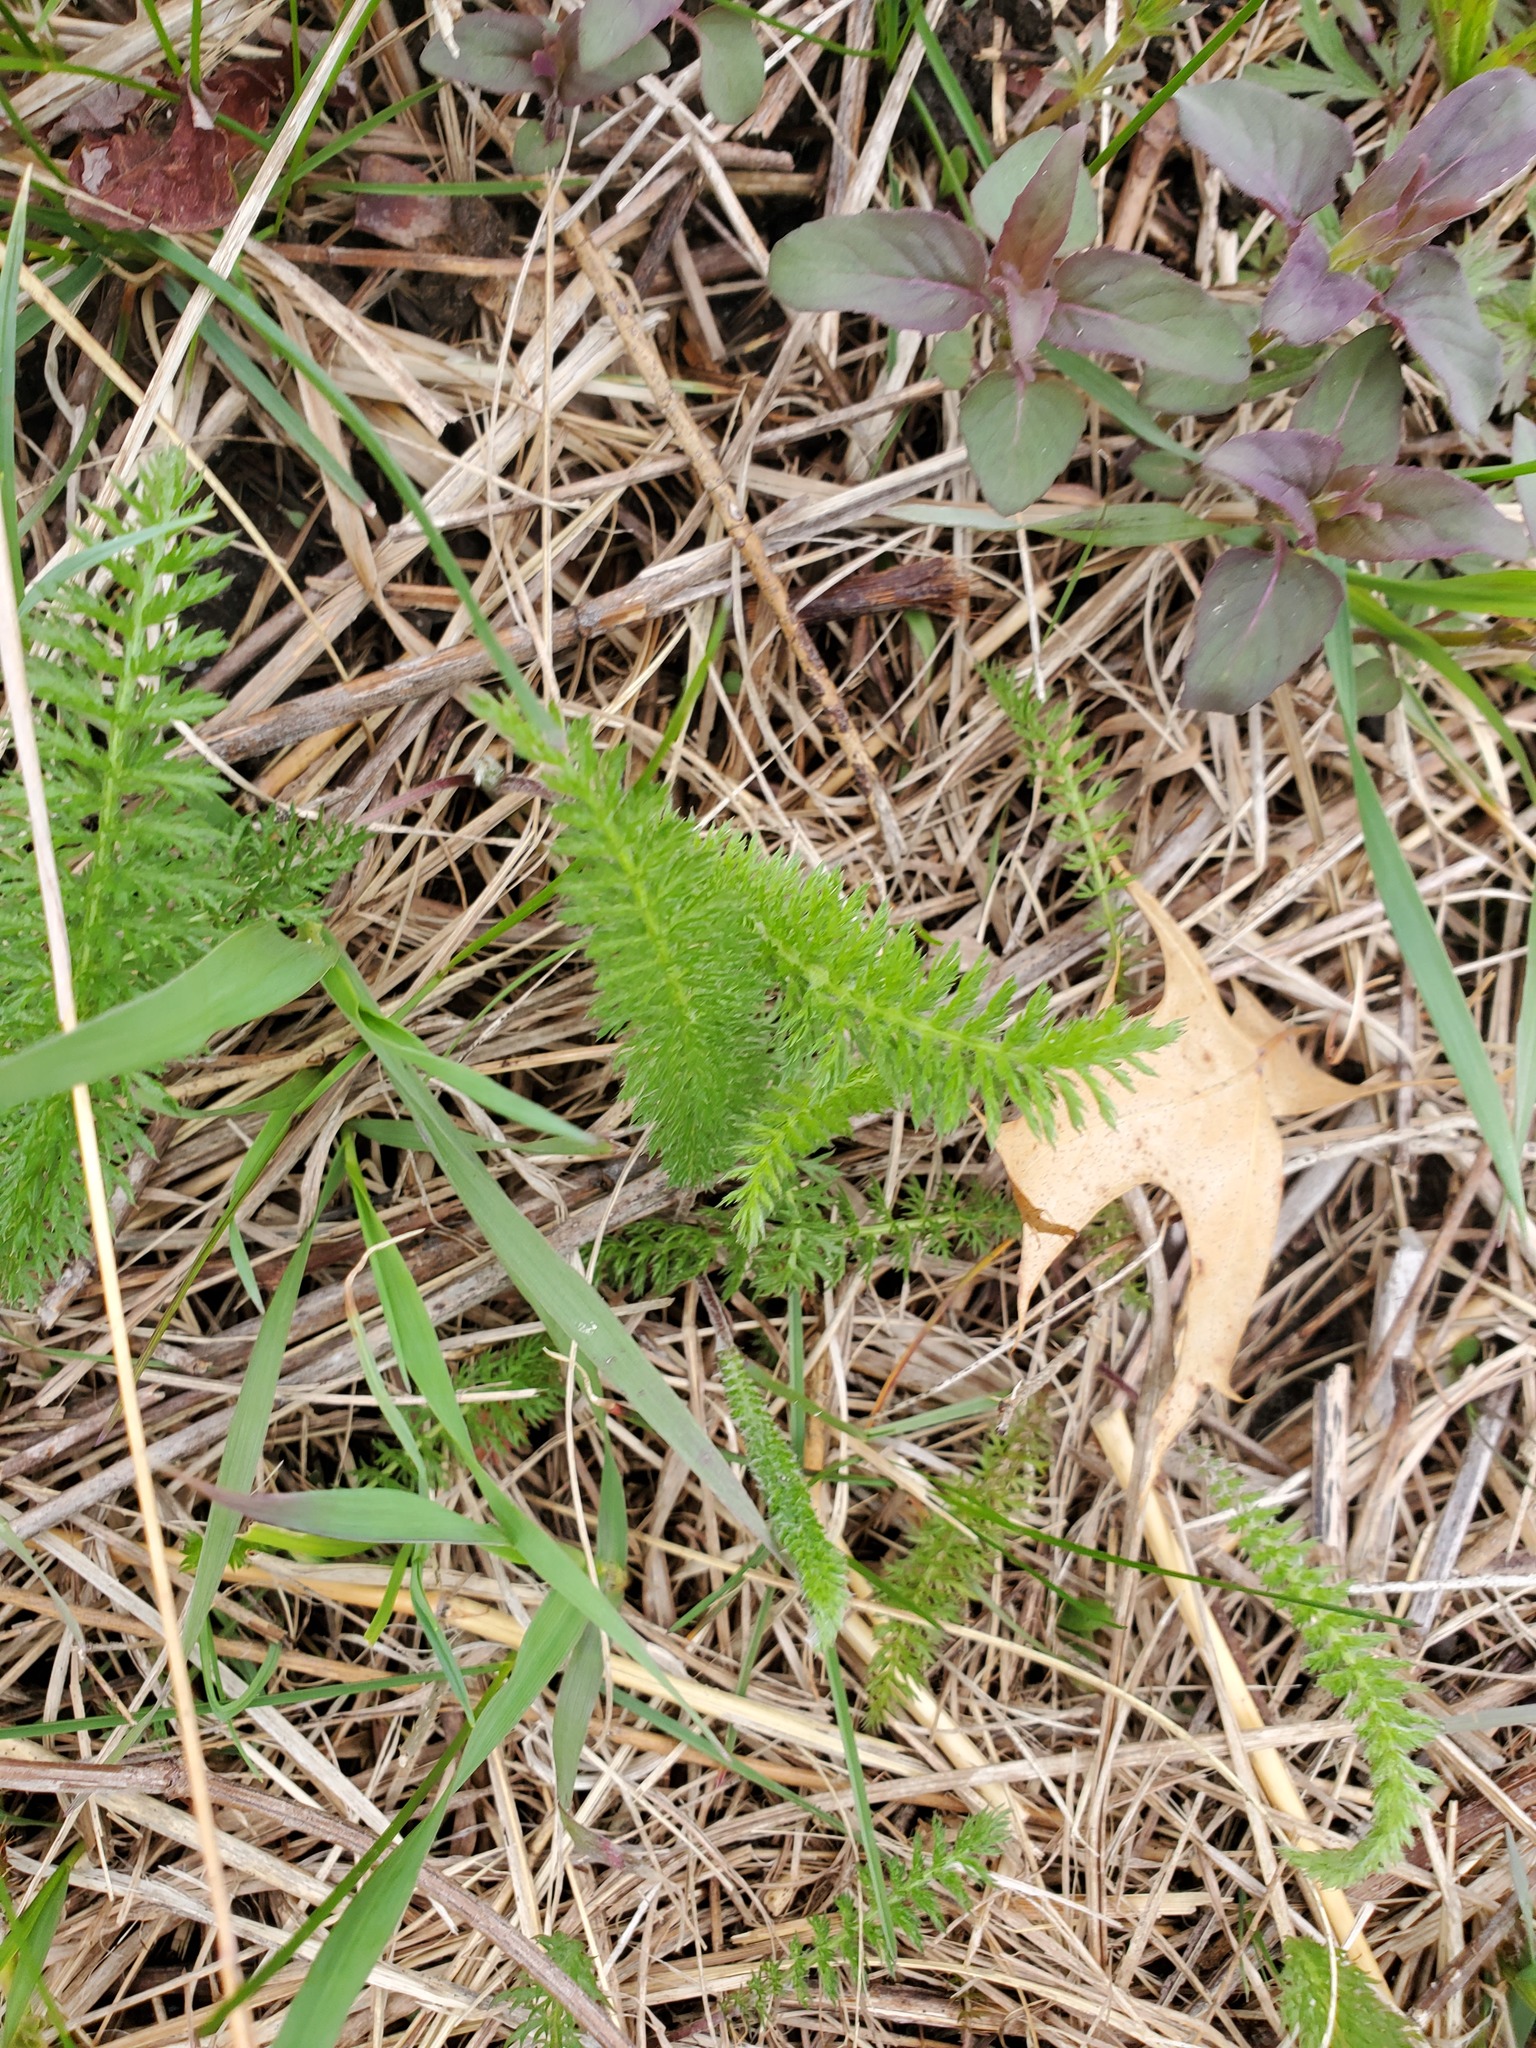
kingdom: Plantae
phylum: Tracheophyta
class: Magnoliopsida
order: Asterales
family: Asteraceae
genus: Achillea
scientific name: Achillea millefolium
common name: Yarrow
